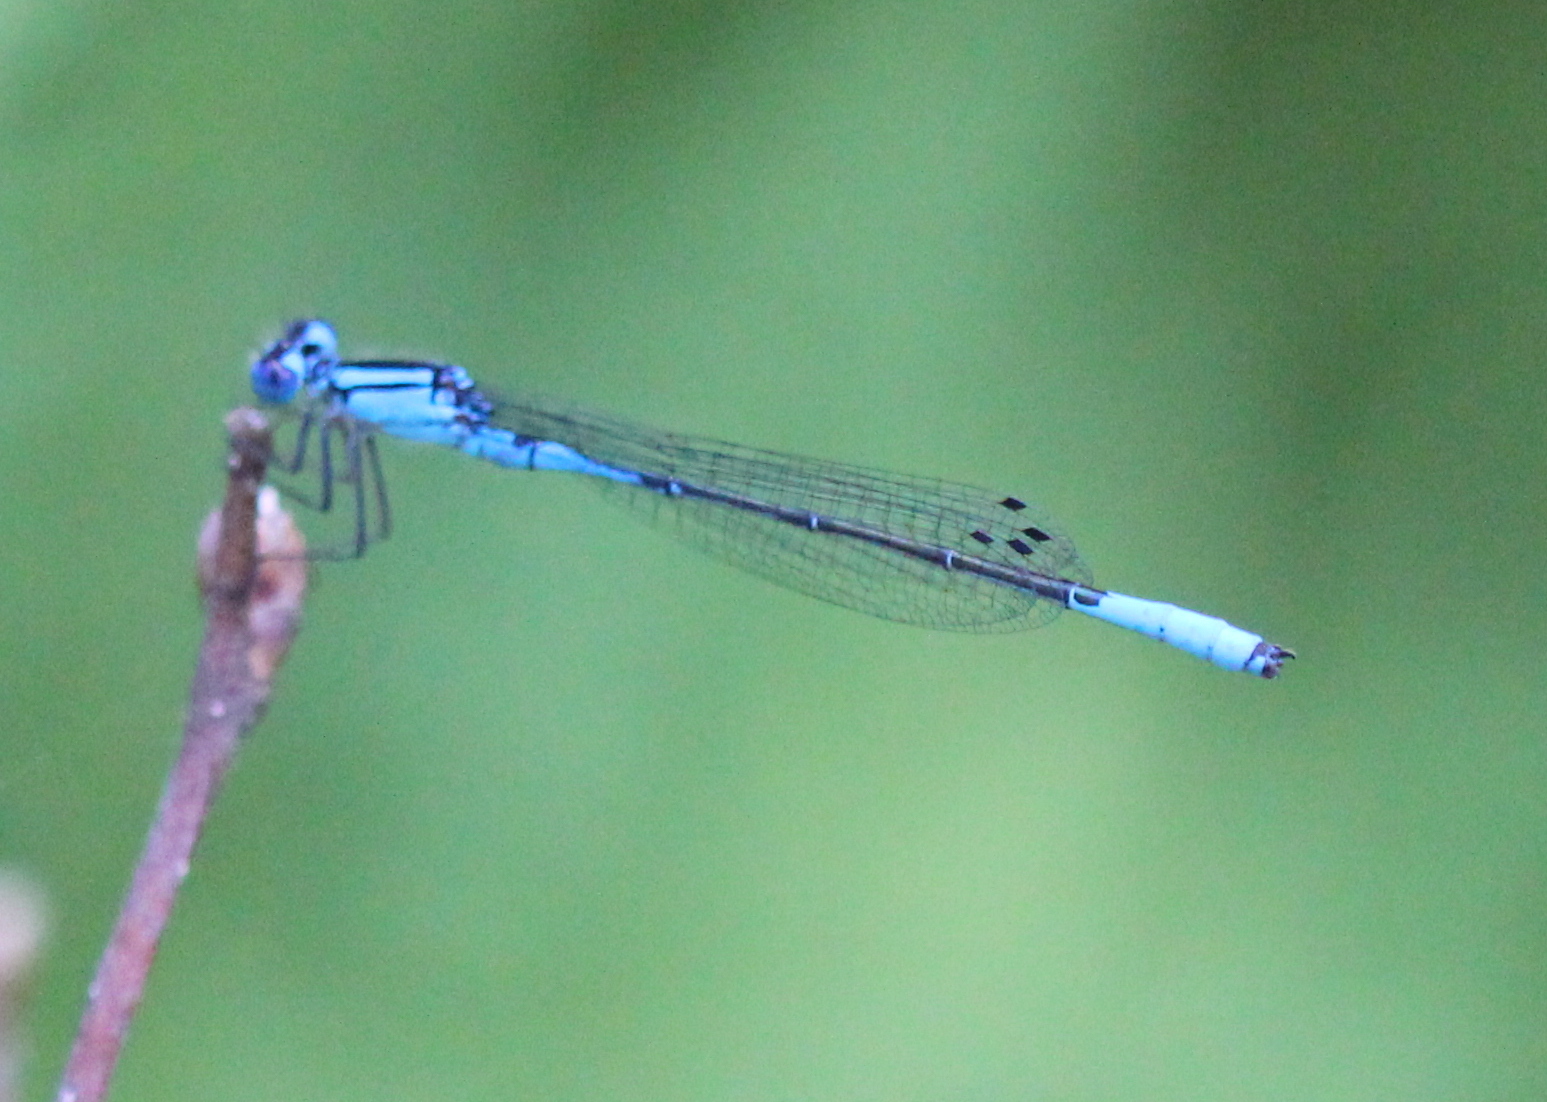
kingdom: Animalia
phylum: Arthropoda
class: Insecta
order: Odonata
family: Coenagrionidae
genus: Enallagma
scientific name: Enallagma aspersum
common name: Azure bluet
